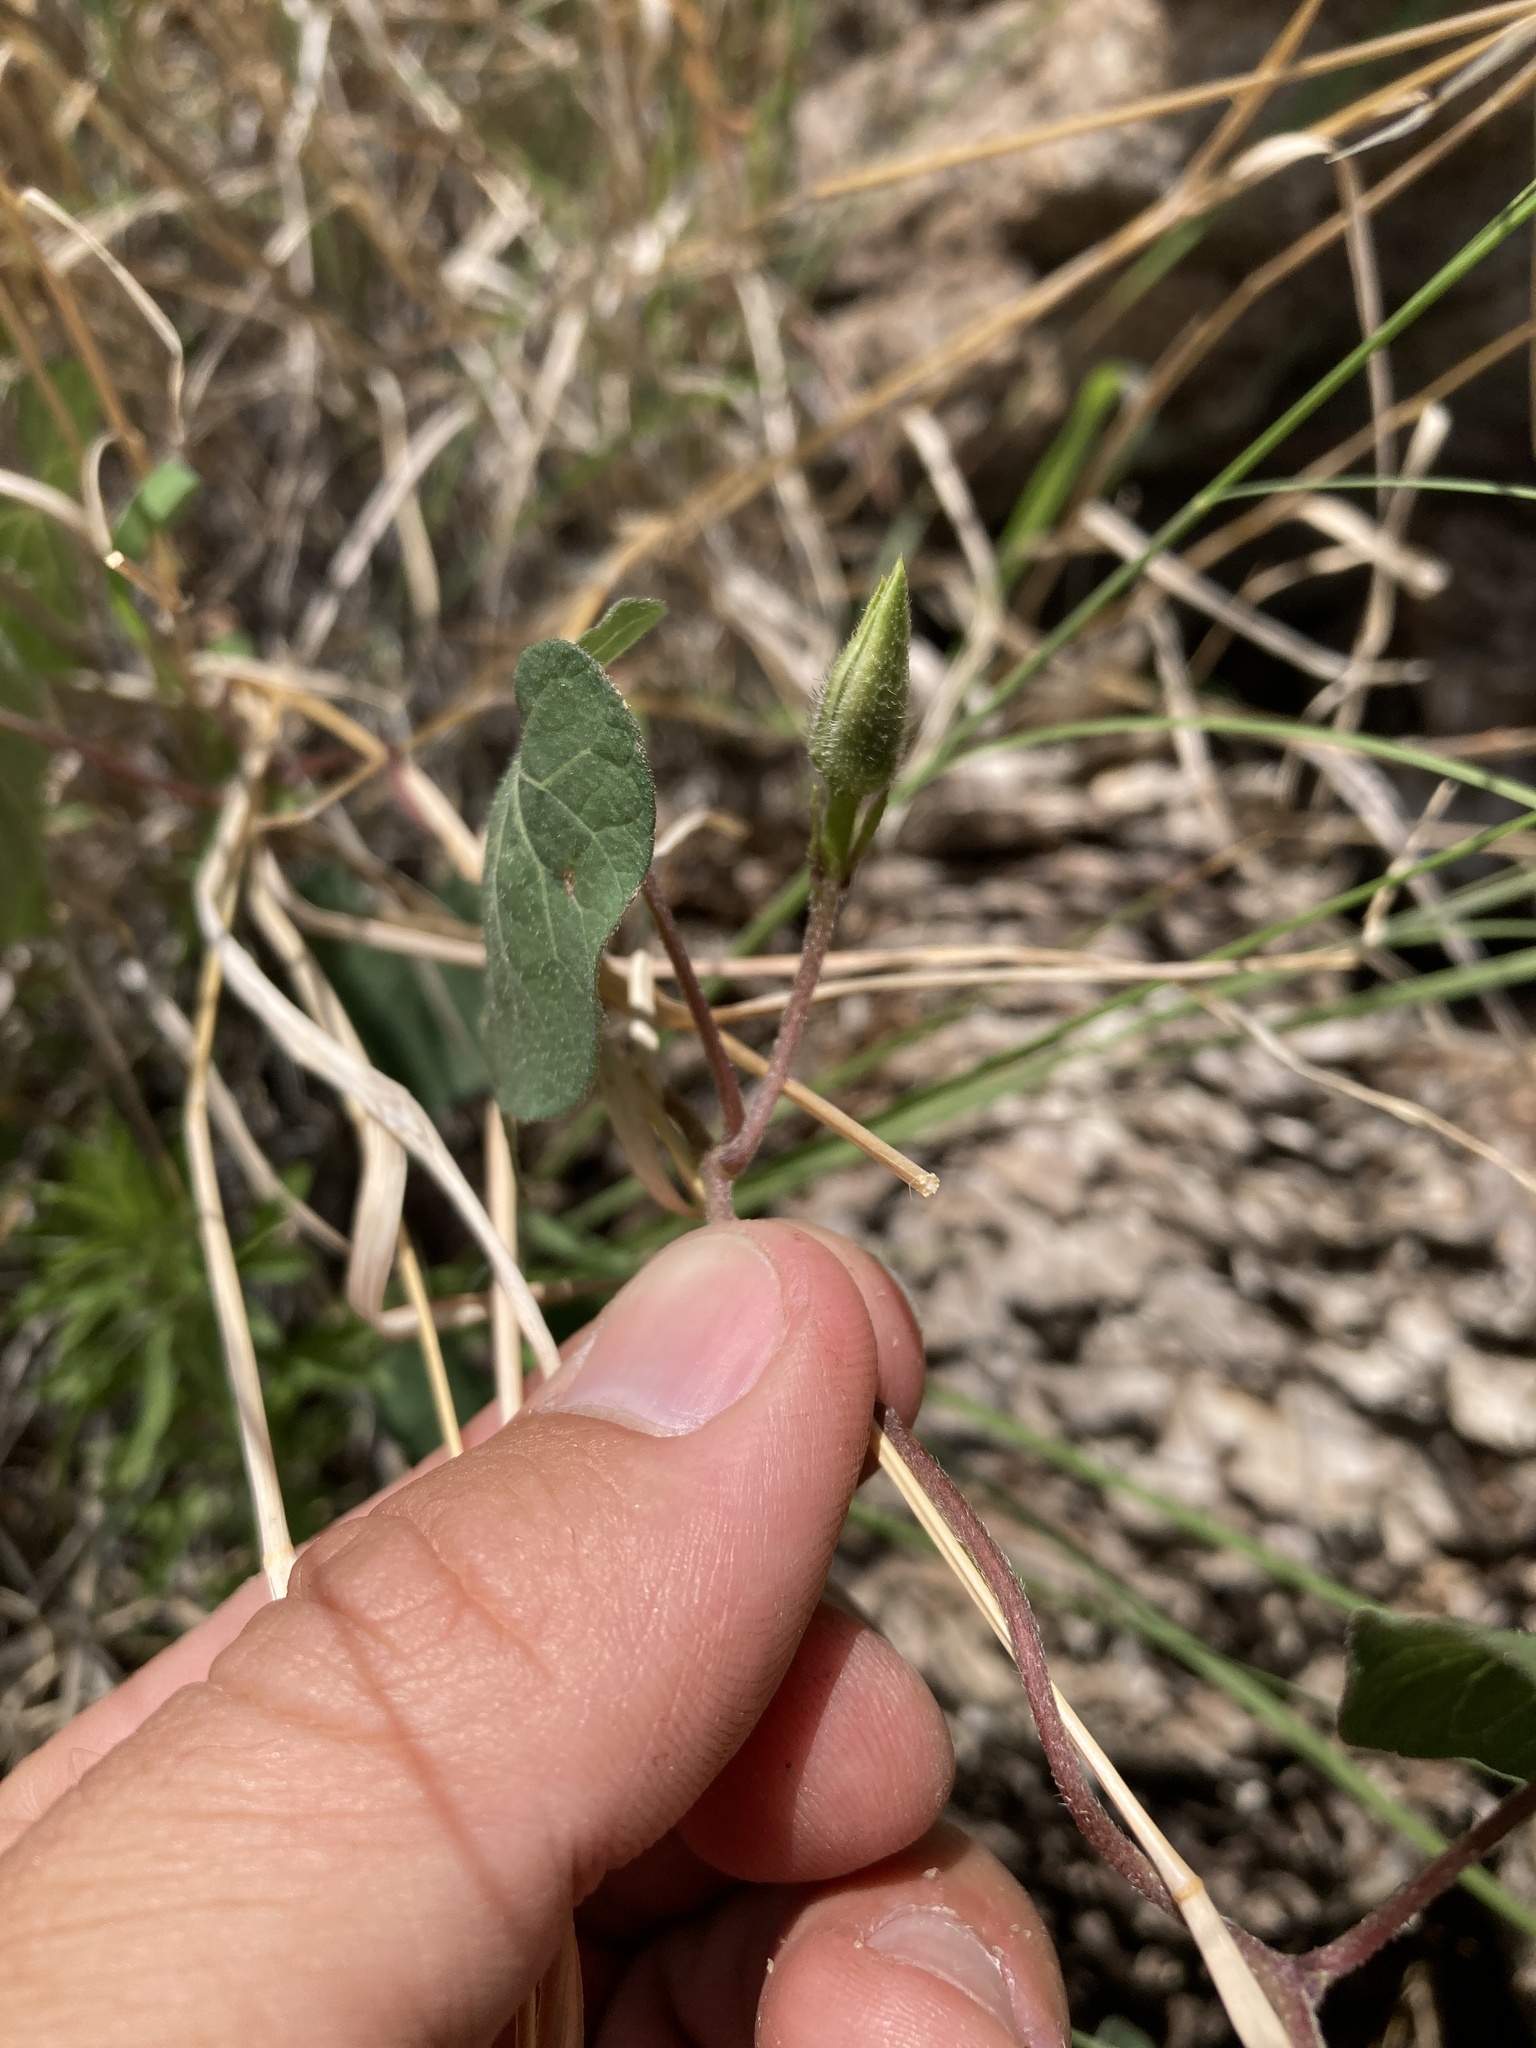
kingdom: Plantae
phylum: Tracheophyta
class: Magnoliopsida
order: Solanales
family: Convolvulaceae
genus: Ipomoea
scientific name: Ipomoea gilana
